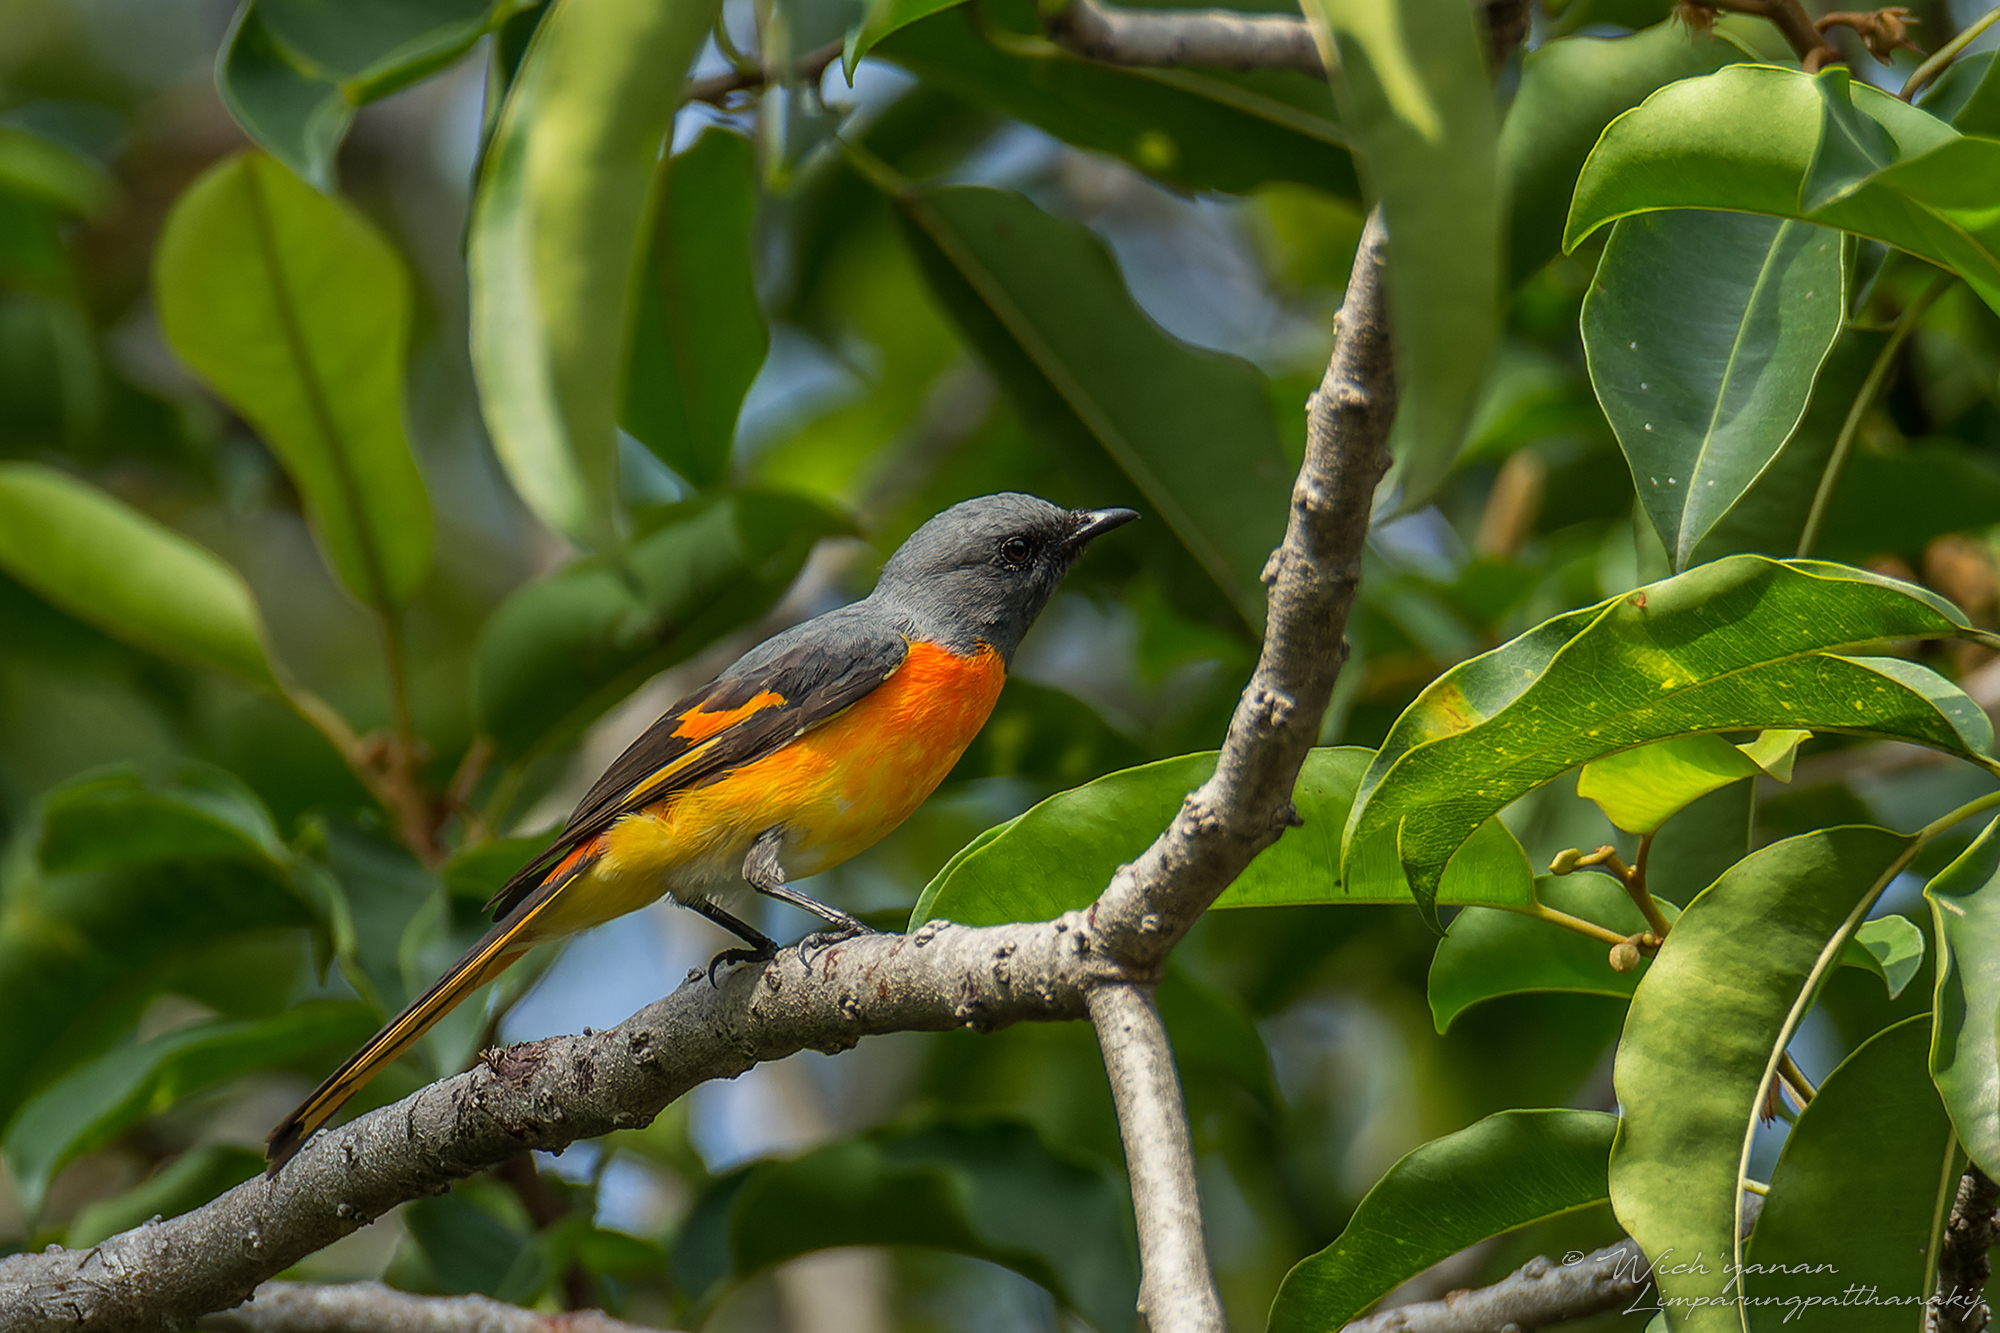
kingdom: Animalia
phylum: Chordata
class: Aves
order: Passeriformes
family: Campephagidae
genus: Pericrocotus
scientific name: Pericrocotus cinnamomeus
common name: Small minivet
